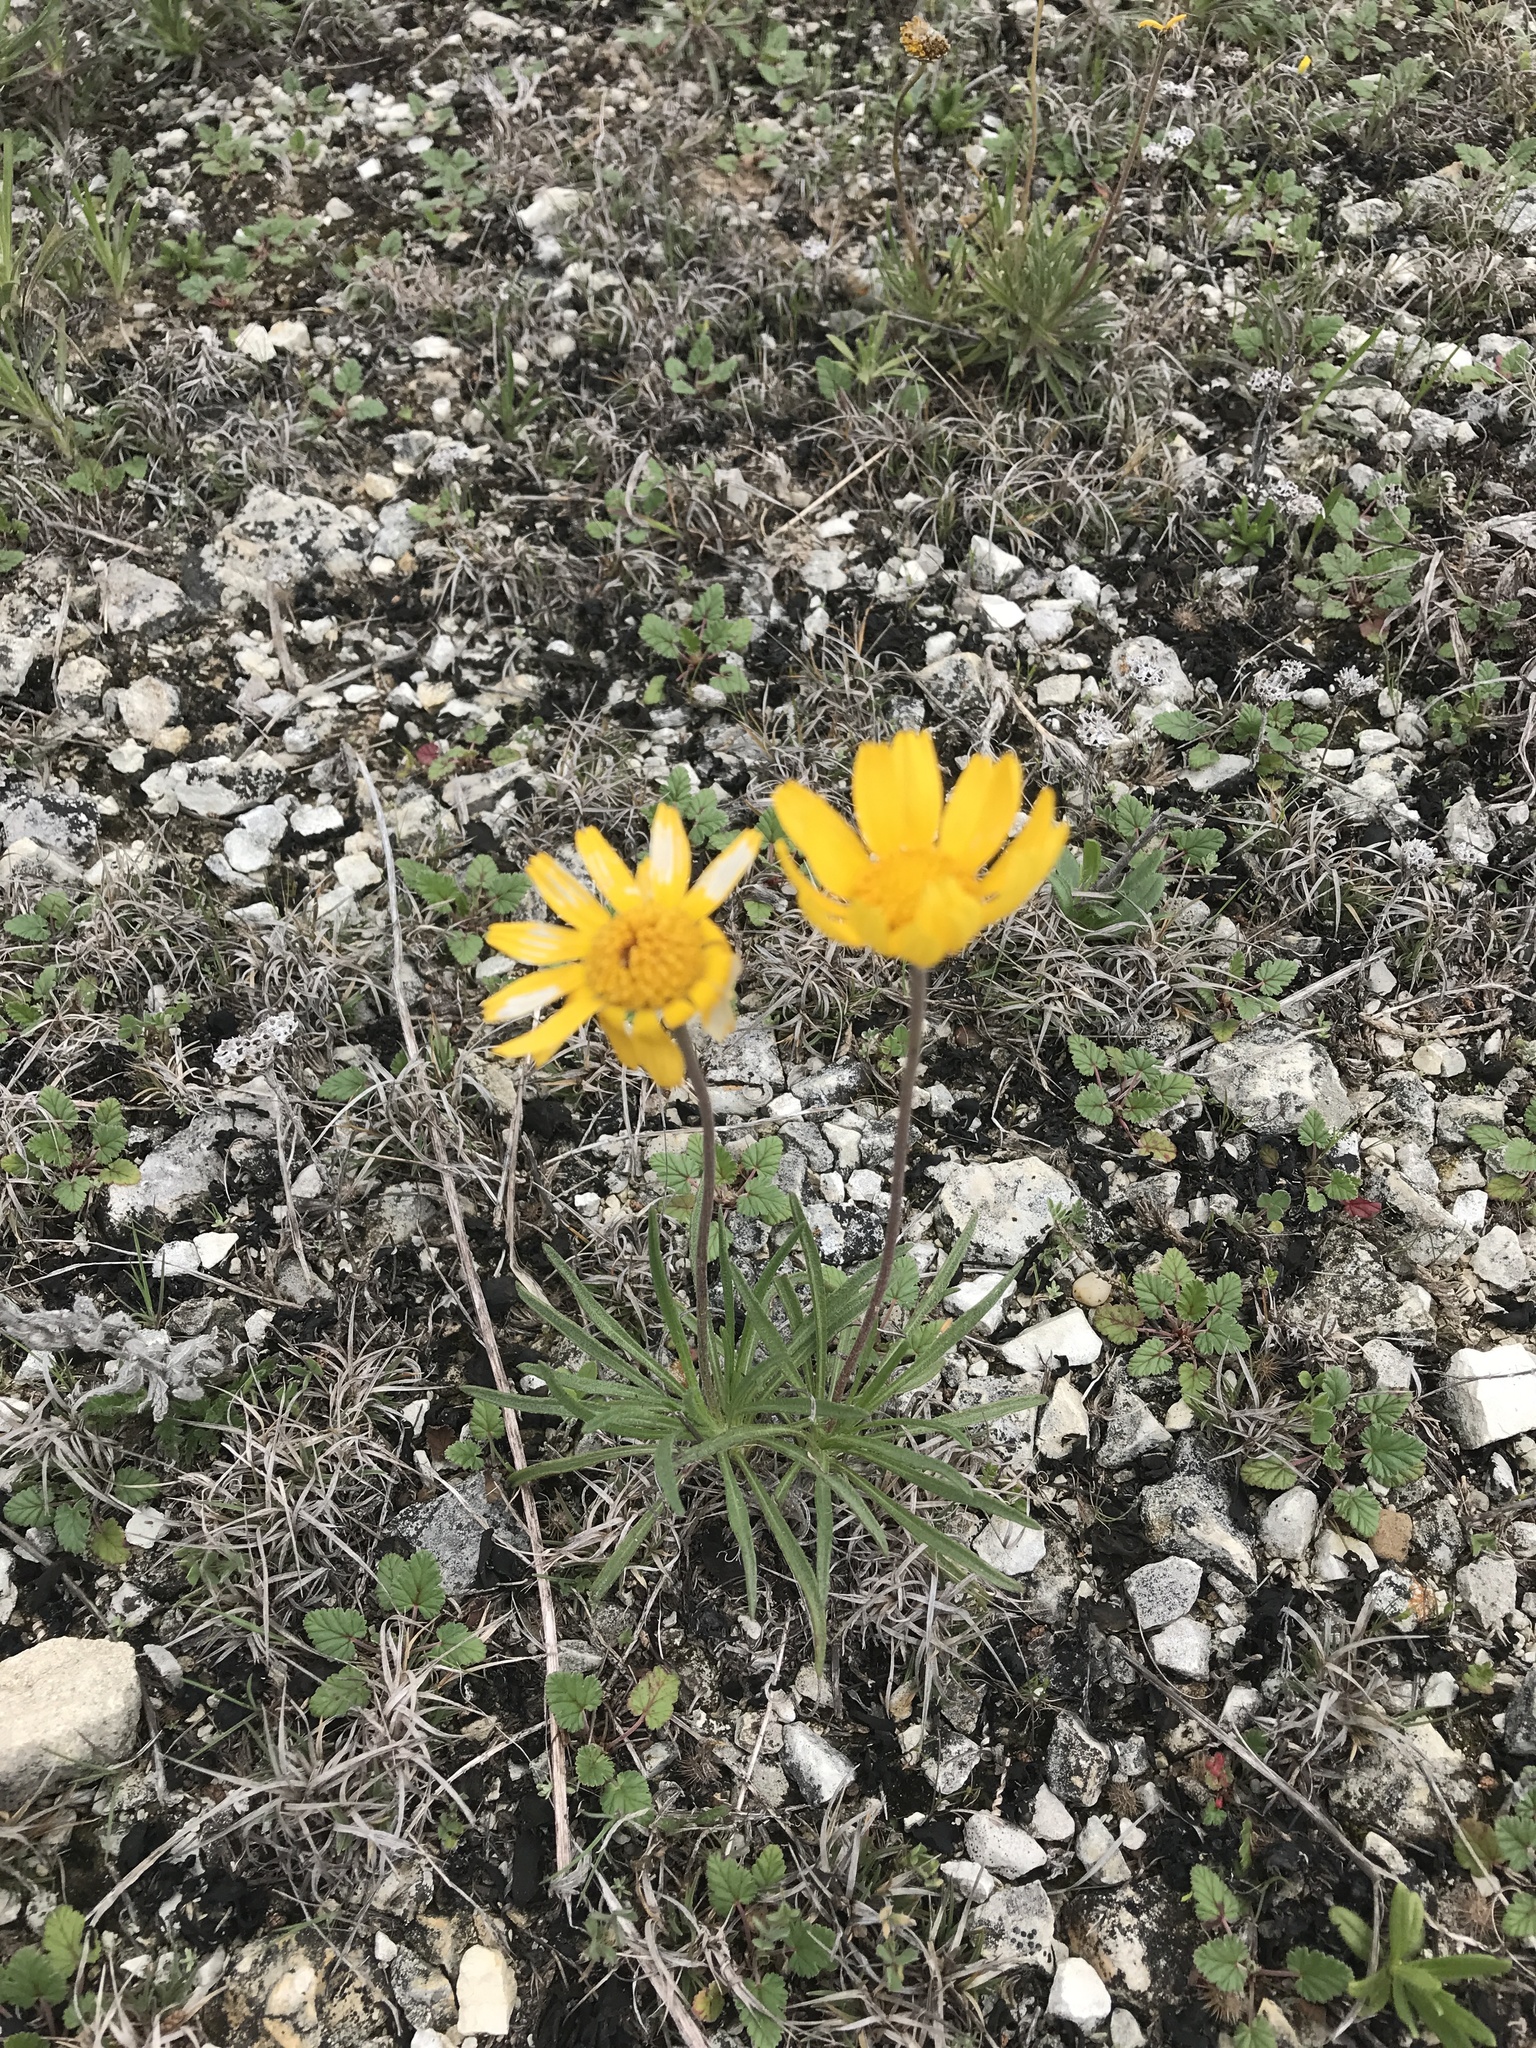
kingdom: Plantae
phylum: Tracheophyta
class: Magnoliopsida
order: Asterales
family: Asteraceae
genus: Tetraneuris
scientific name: Tetraneuris scaposa
